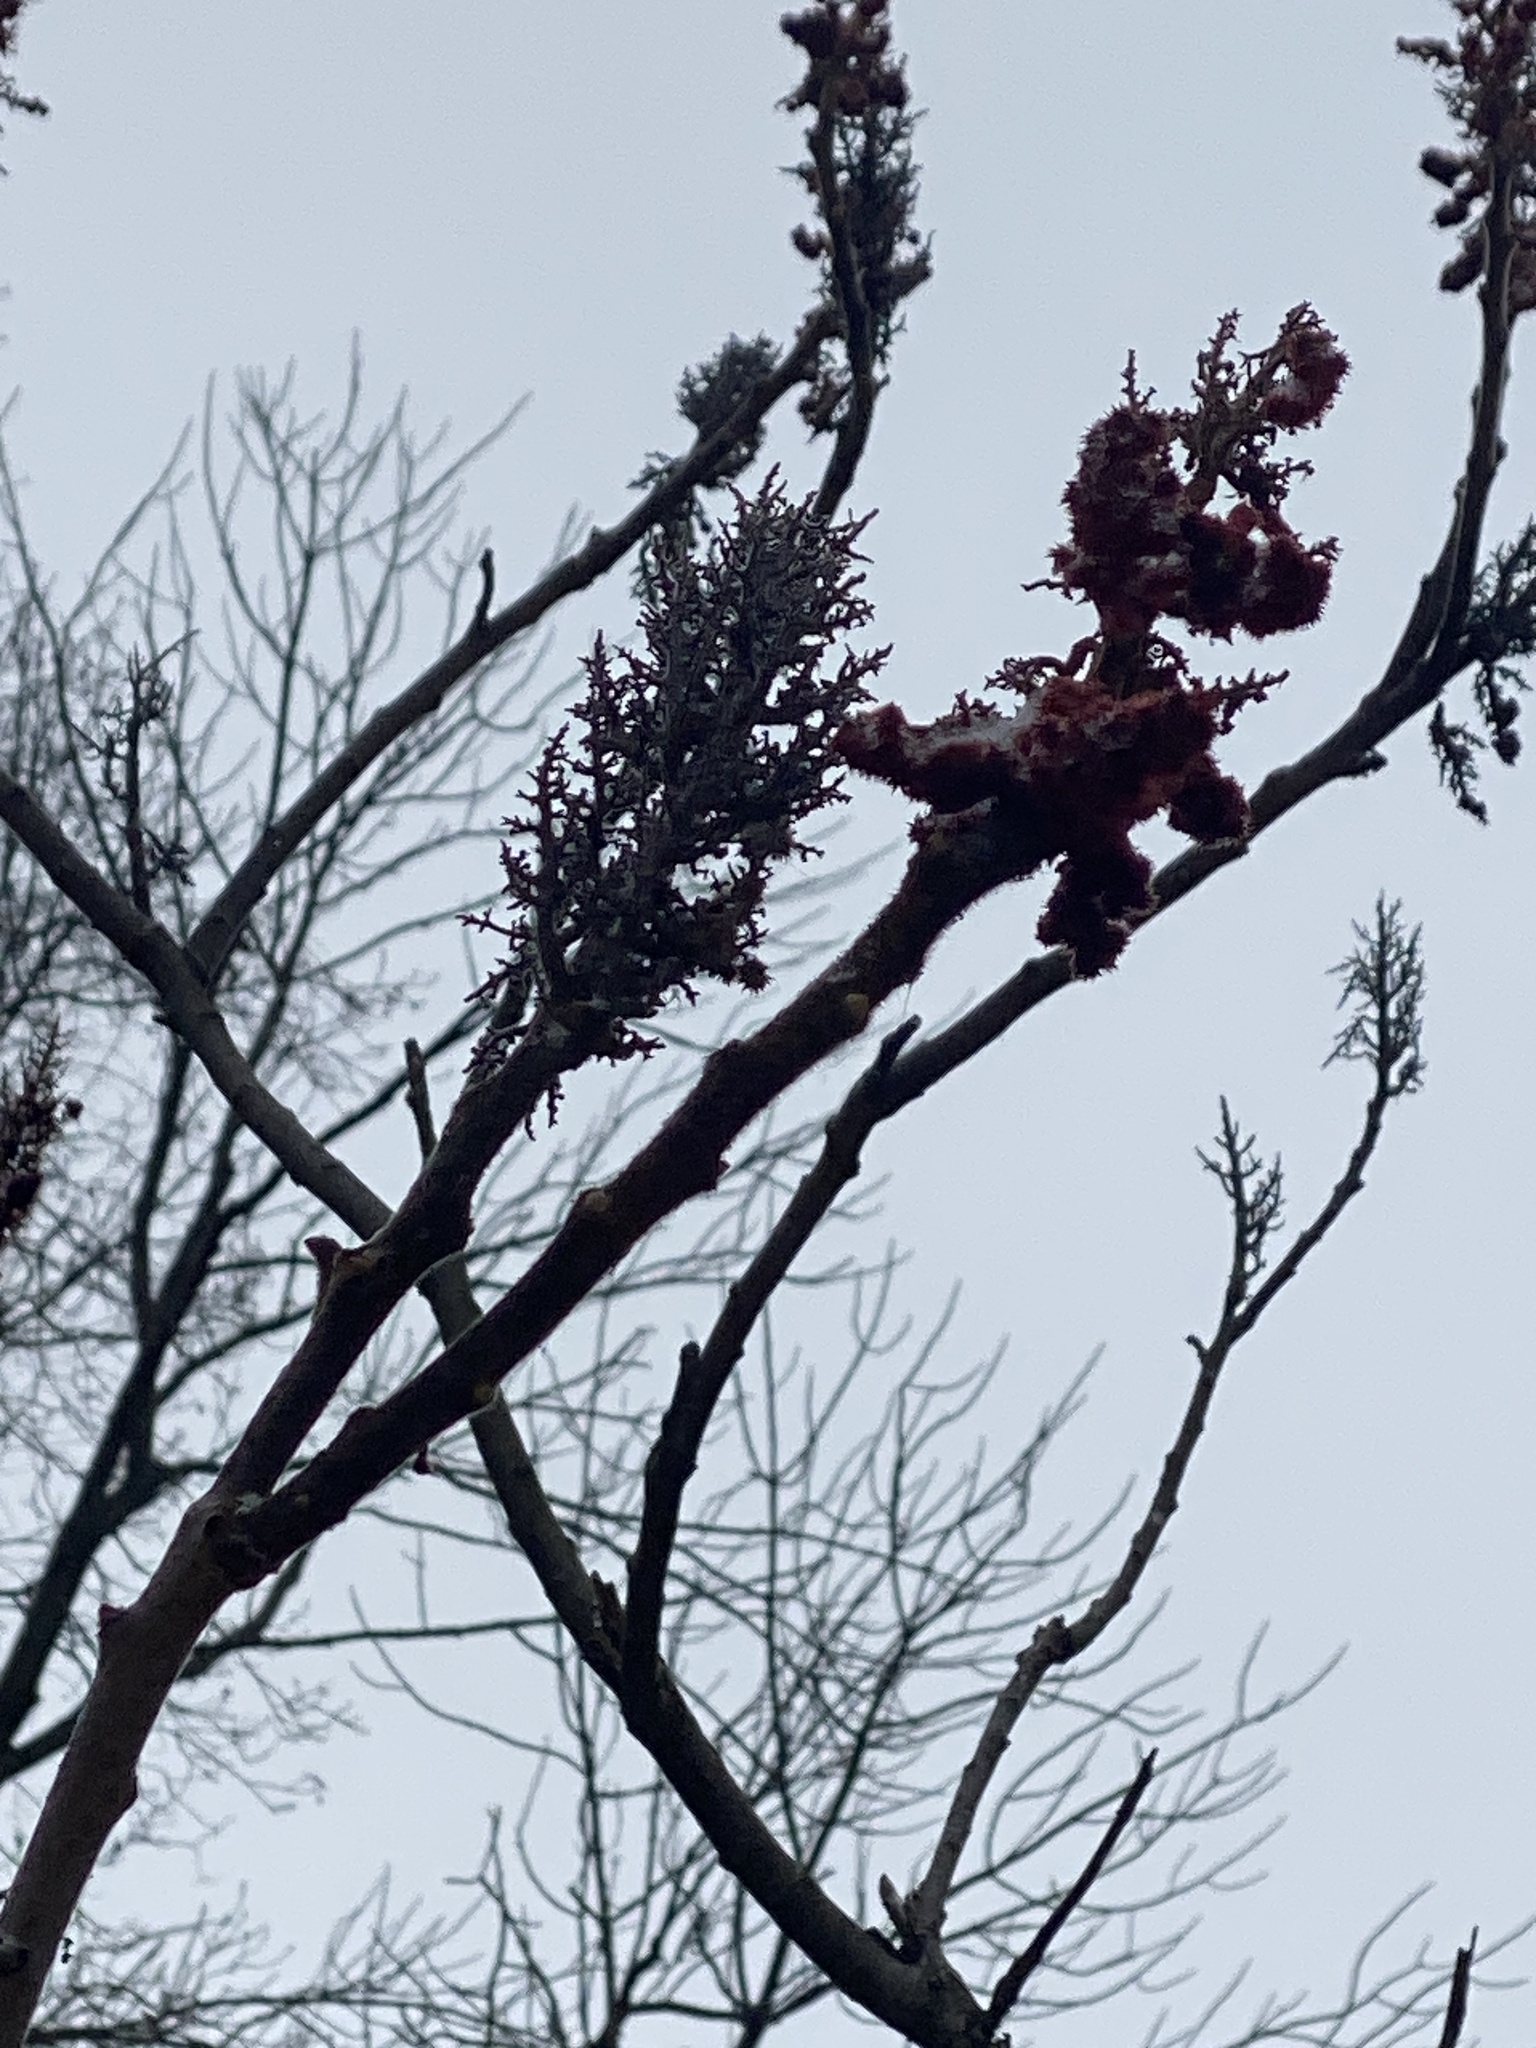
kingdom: Plantae
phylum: Tracheophyta
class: Magnoliopsida
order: Sapindales
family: Anacardiaceae
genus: Rhus
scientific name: Rhus typhina
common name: Staghorn sumac
